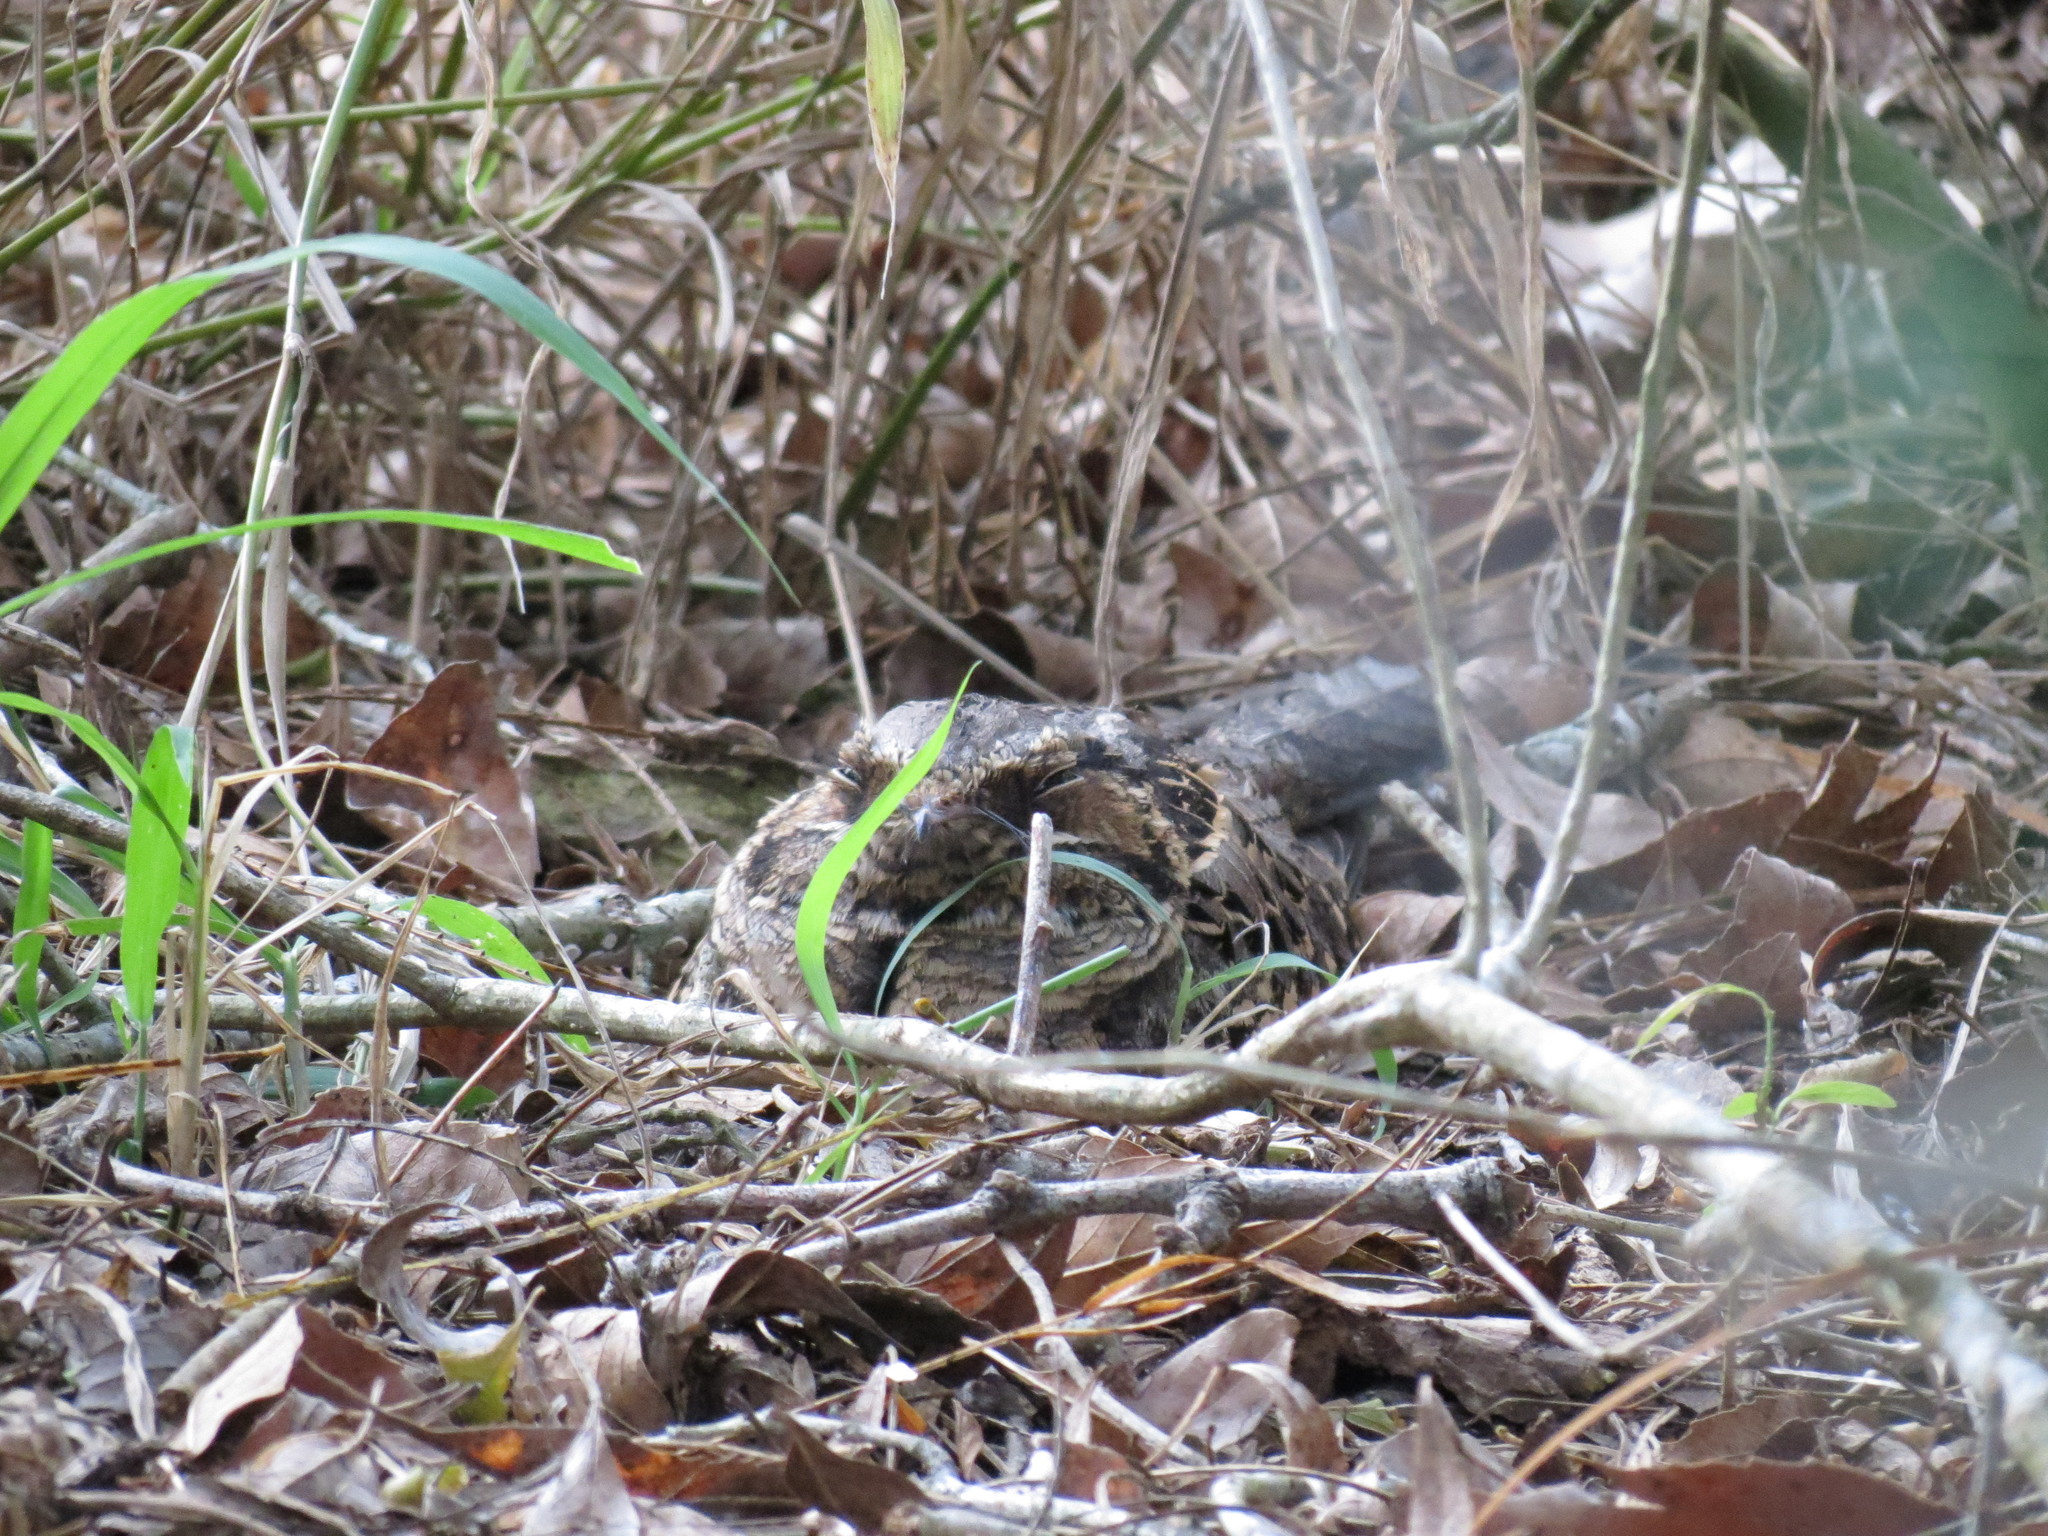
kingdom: Animalia
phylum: Chordata
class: Aves
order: Caprimulgiformes
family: Caprimulgidae
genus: Nyctidromus
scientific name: Nyctidromus albicollis
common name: Pauraque
